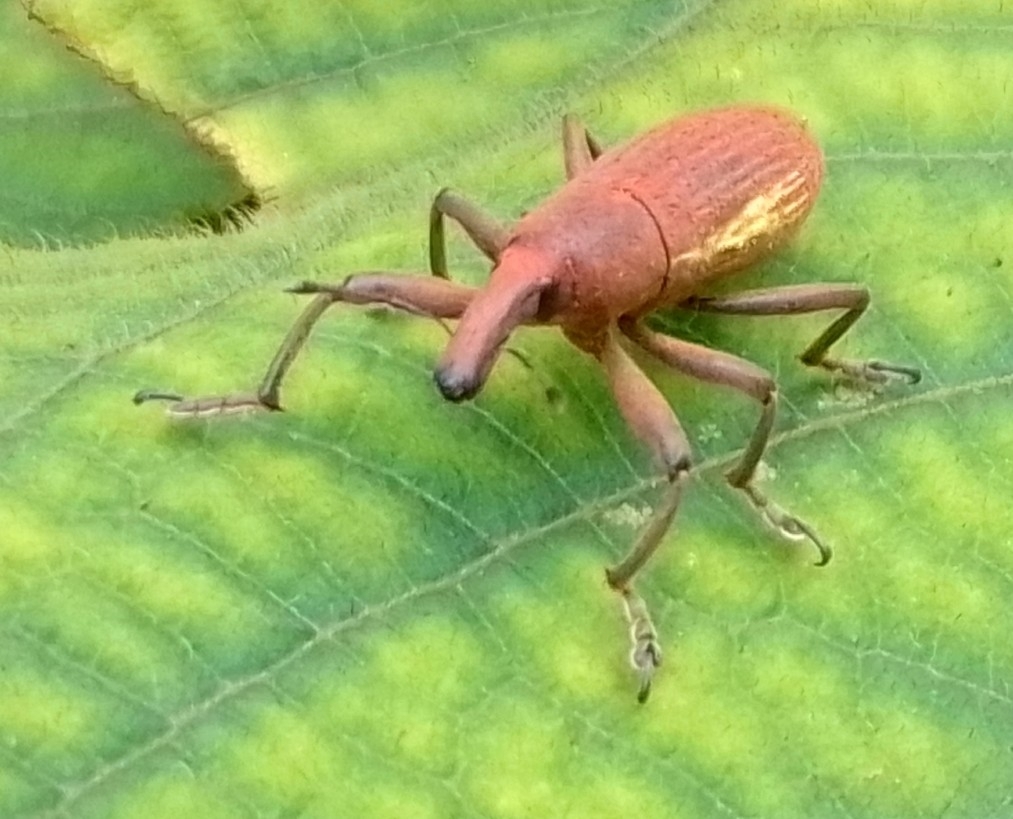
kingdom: Animalia
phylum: Arthropoda
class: Insecta
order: Coleoptera
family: Curculionidae
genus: Lixus
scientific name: Lixus apterus
